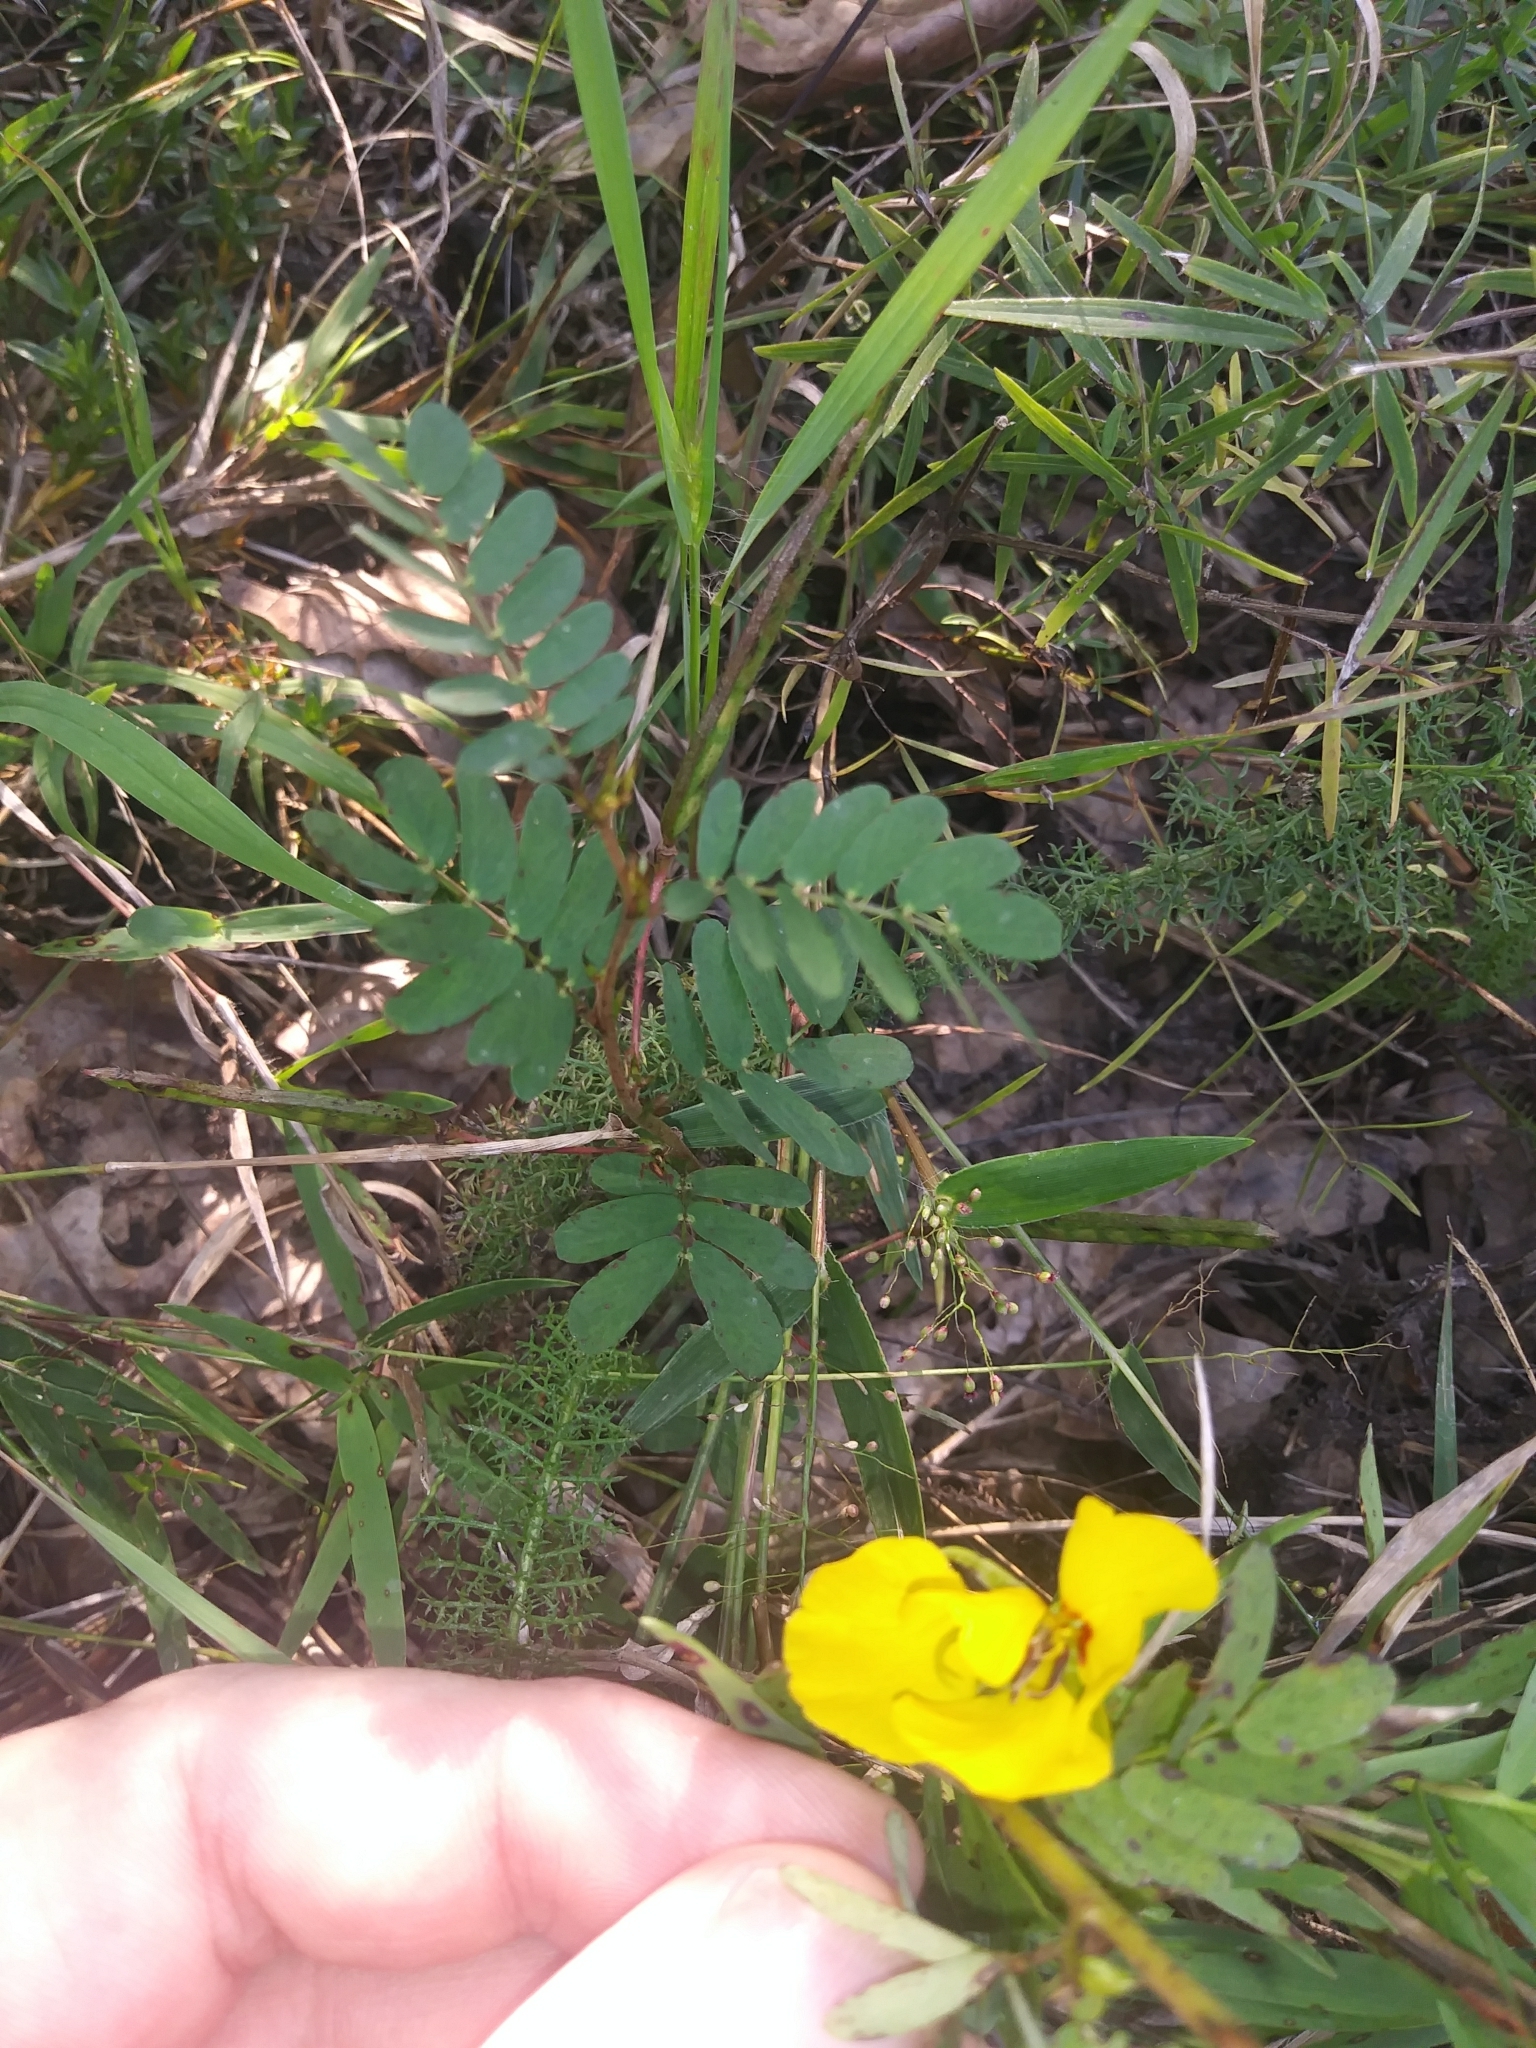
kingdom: Plantae
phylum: Tracheophyta
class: Magnoliopsida
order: Fabales
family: Fabaceae
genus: Chamaecrista
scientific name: Chamaecrista fasciculata
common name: Golden cassia
